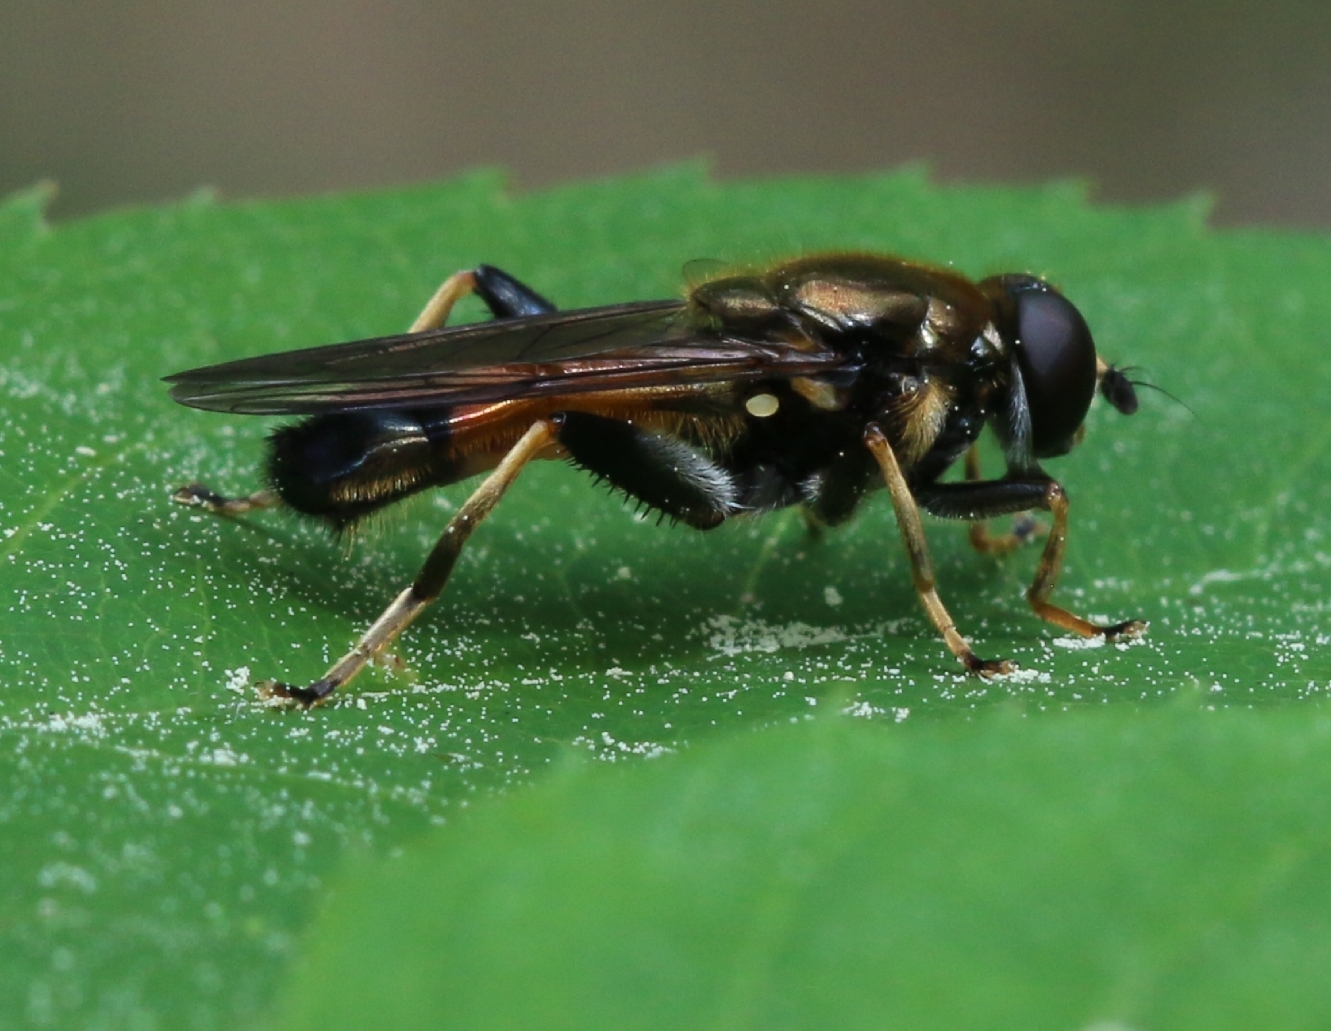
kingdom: Animalia
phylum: Arthropoda
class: Insecta
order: Diptera
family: Syrphidae
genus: Xylota
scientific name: Xylota segnis
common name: Brown-toed forest fly
